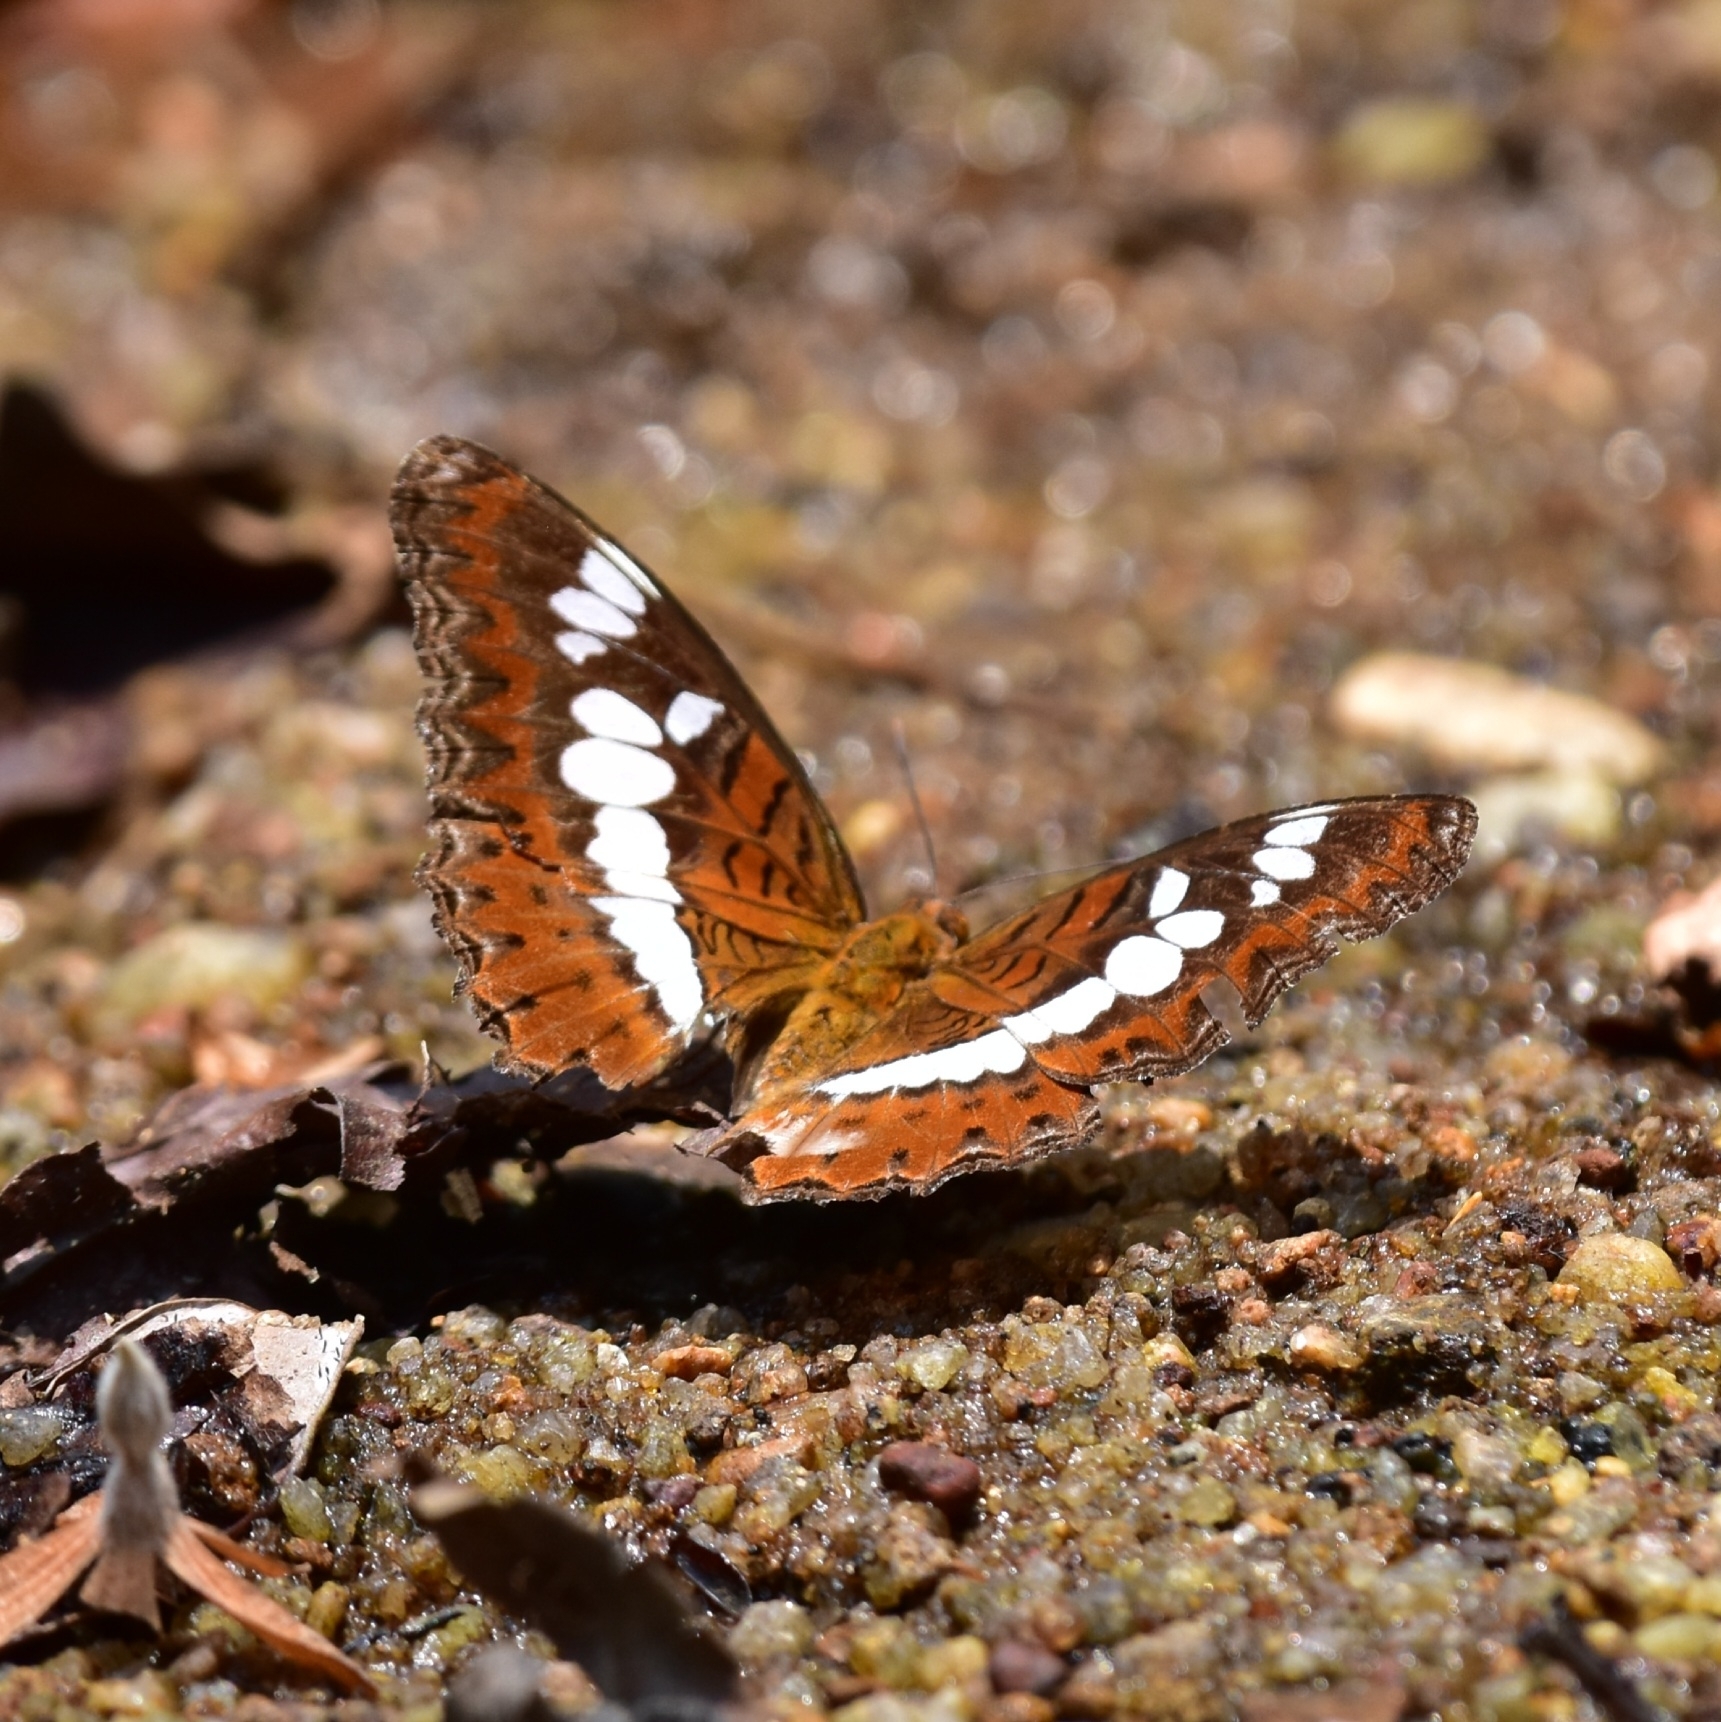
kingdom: Animalia
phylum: Arthropoda
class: Insecta
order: Lepidoptera
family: Nymphalidae
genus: Limenitis
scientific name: Limenitis Moduza procris
